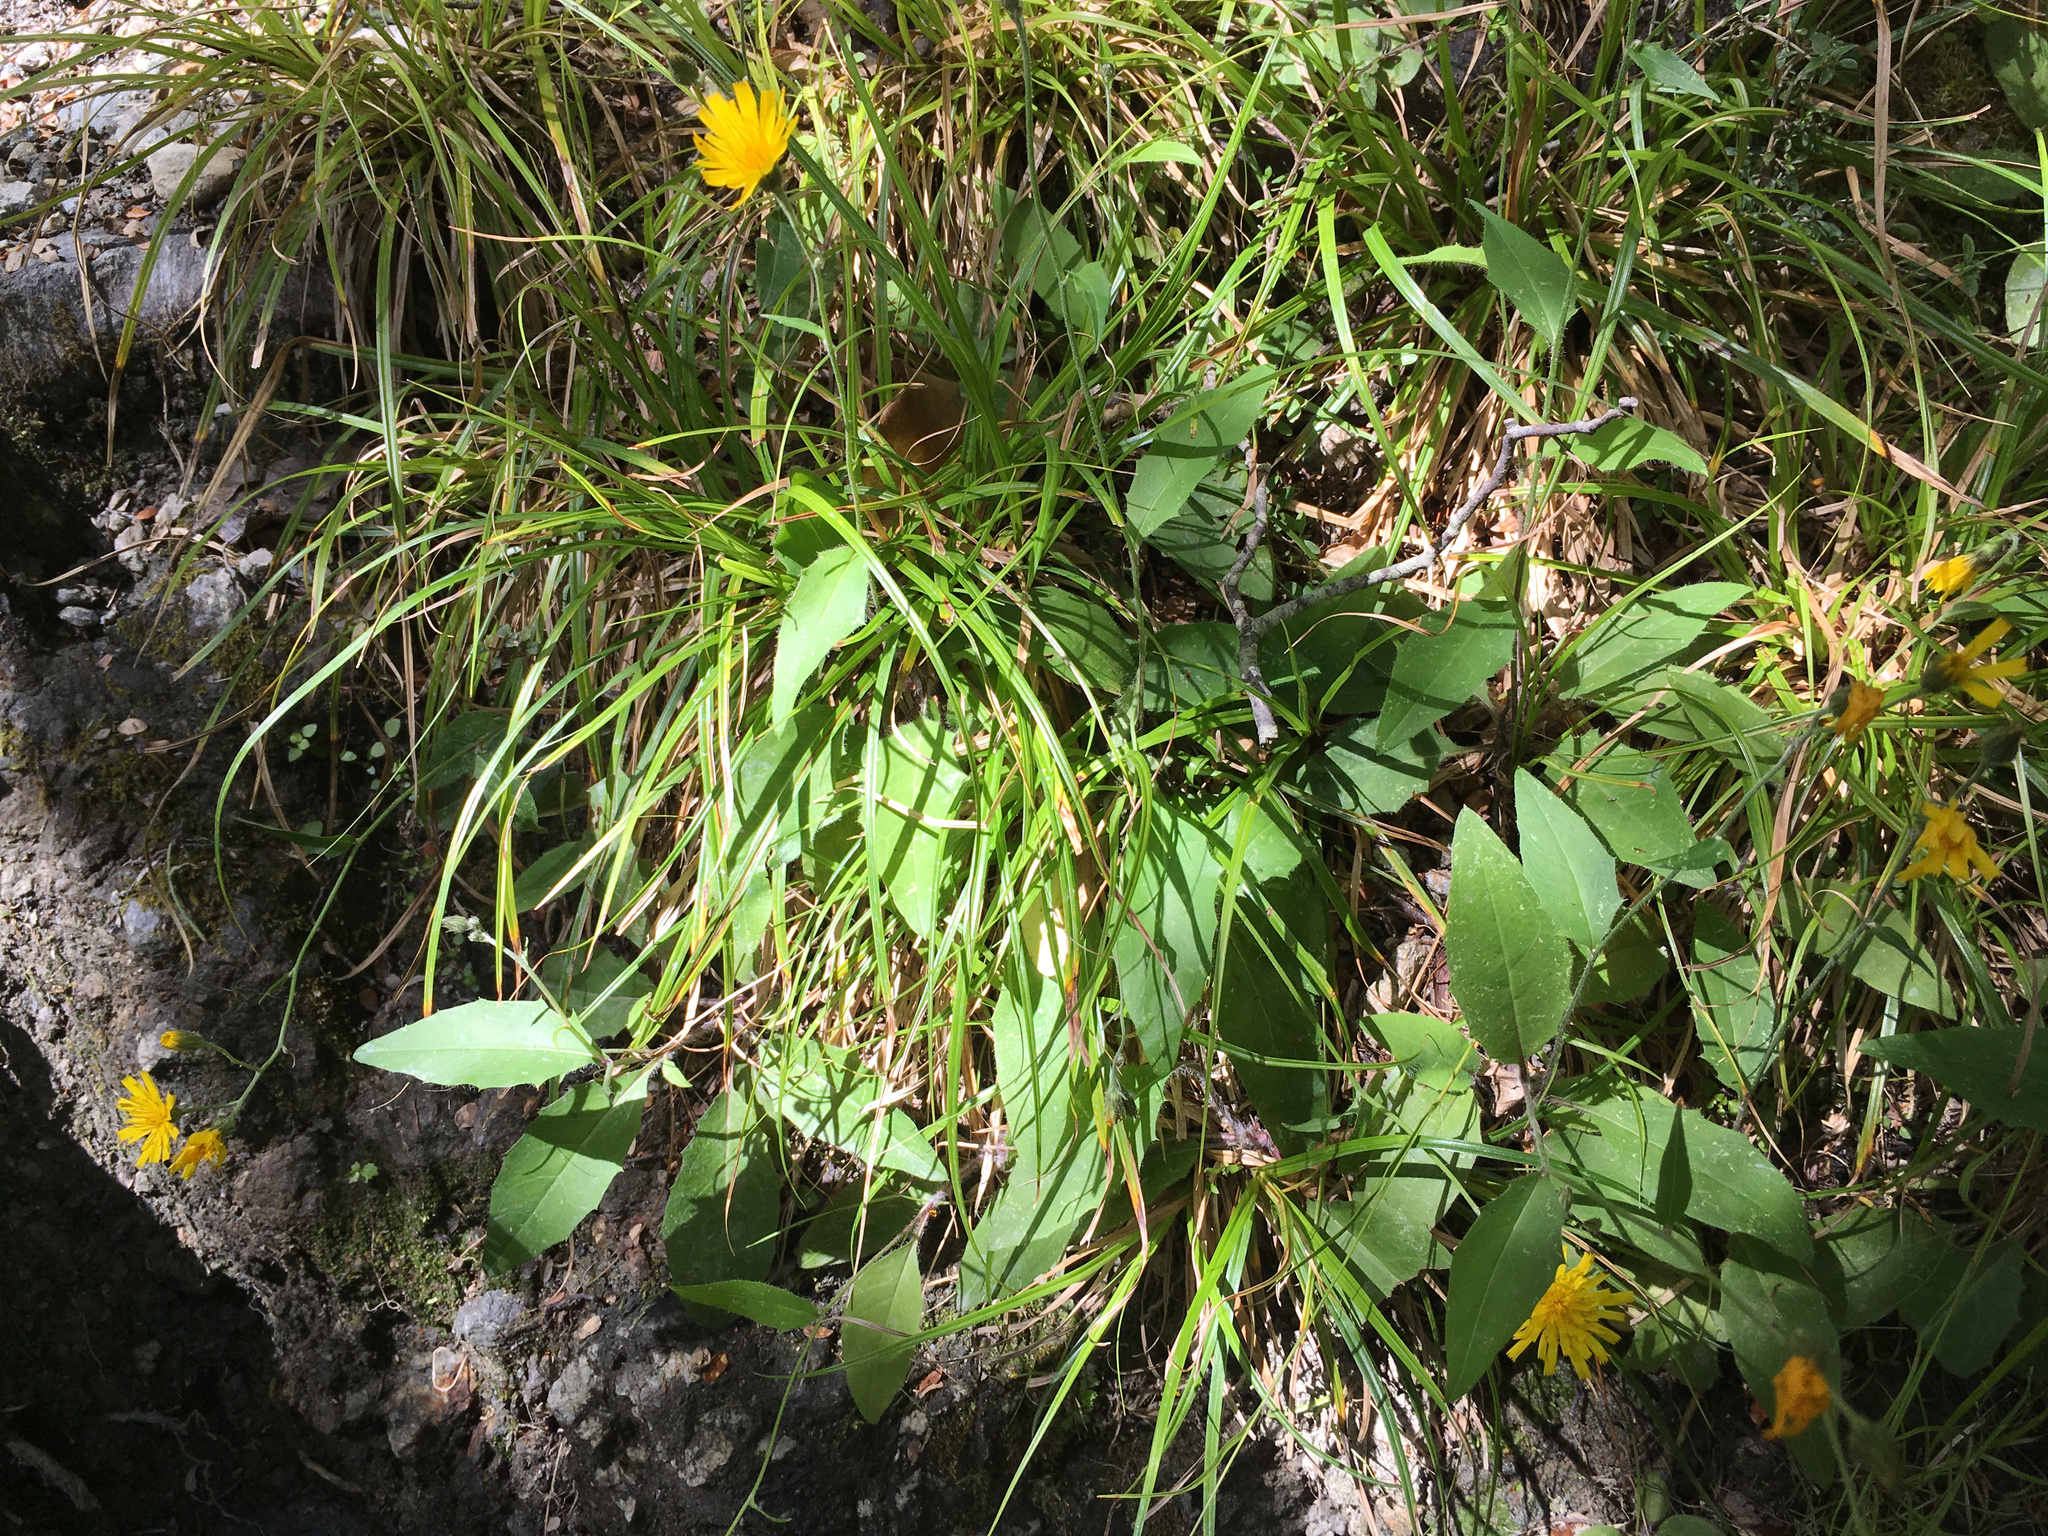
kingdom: Plantae
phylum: Tracheophyta
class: Magnoliopsida
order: Asterales
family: Asteraceae
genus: Hieracium
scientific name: Hieracium lepidulum
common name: Irregular-toothed hawkweed
